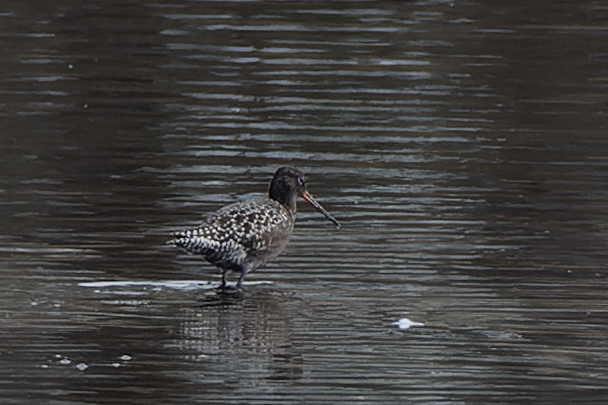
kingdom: Animalia
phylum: Chordata
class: Aves
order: Charadriiformes
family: Scolopacidae
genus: Tringa
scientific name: Tringa erythropus
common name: Spotted redshank
